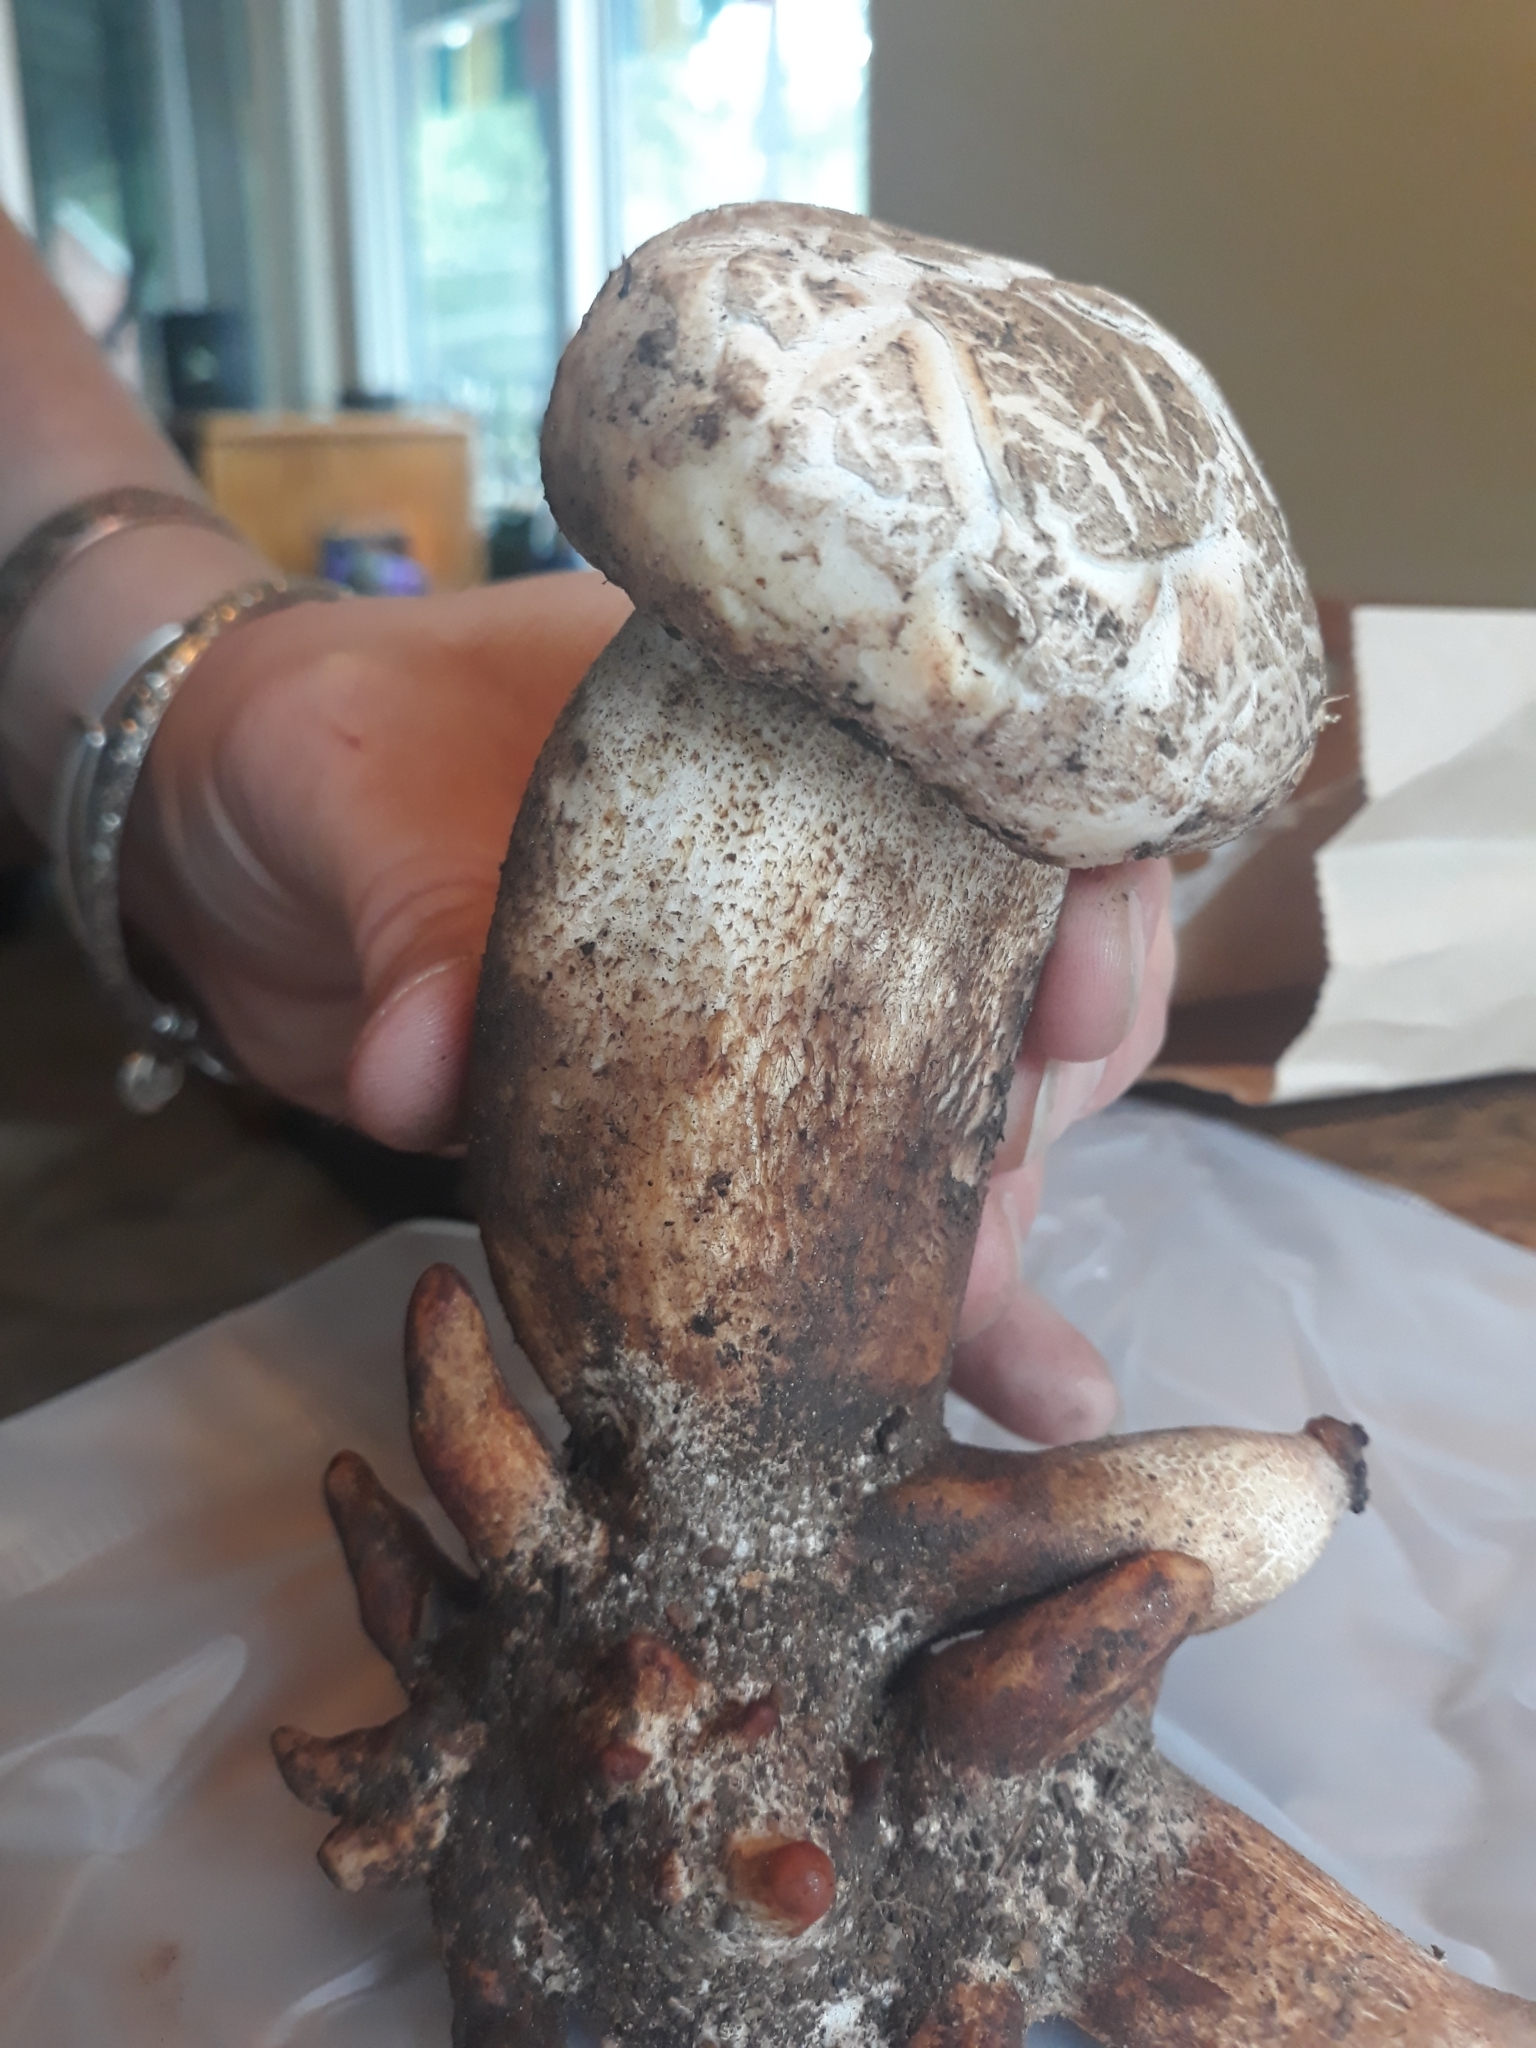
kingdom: Fungi
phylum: Basidiomycota
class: Agaricomycetes
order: Gloeophyllales
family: Gloeophyllaceae
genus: Neolentinus
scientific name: Neolentinus ponderosus
